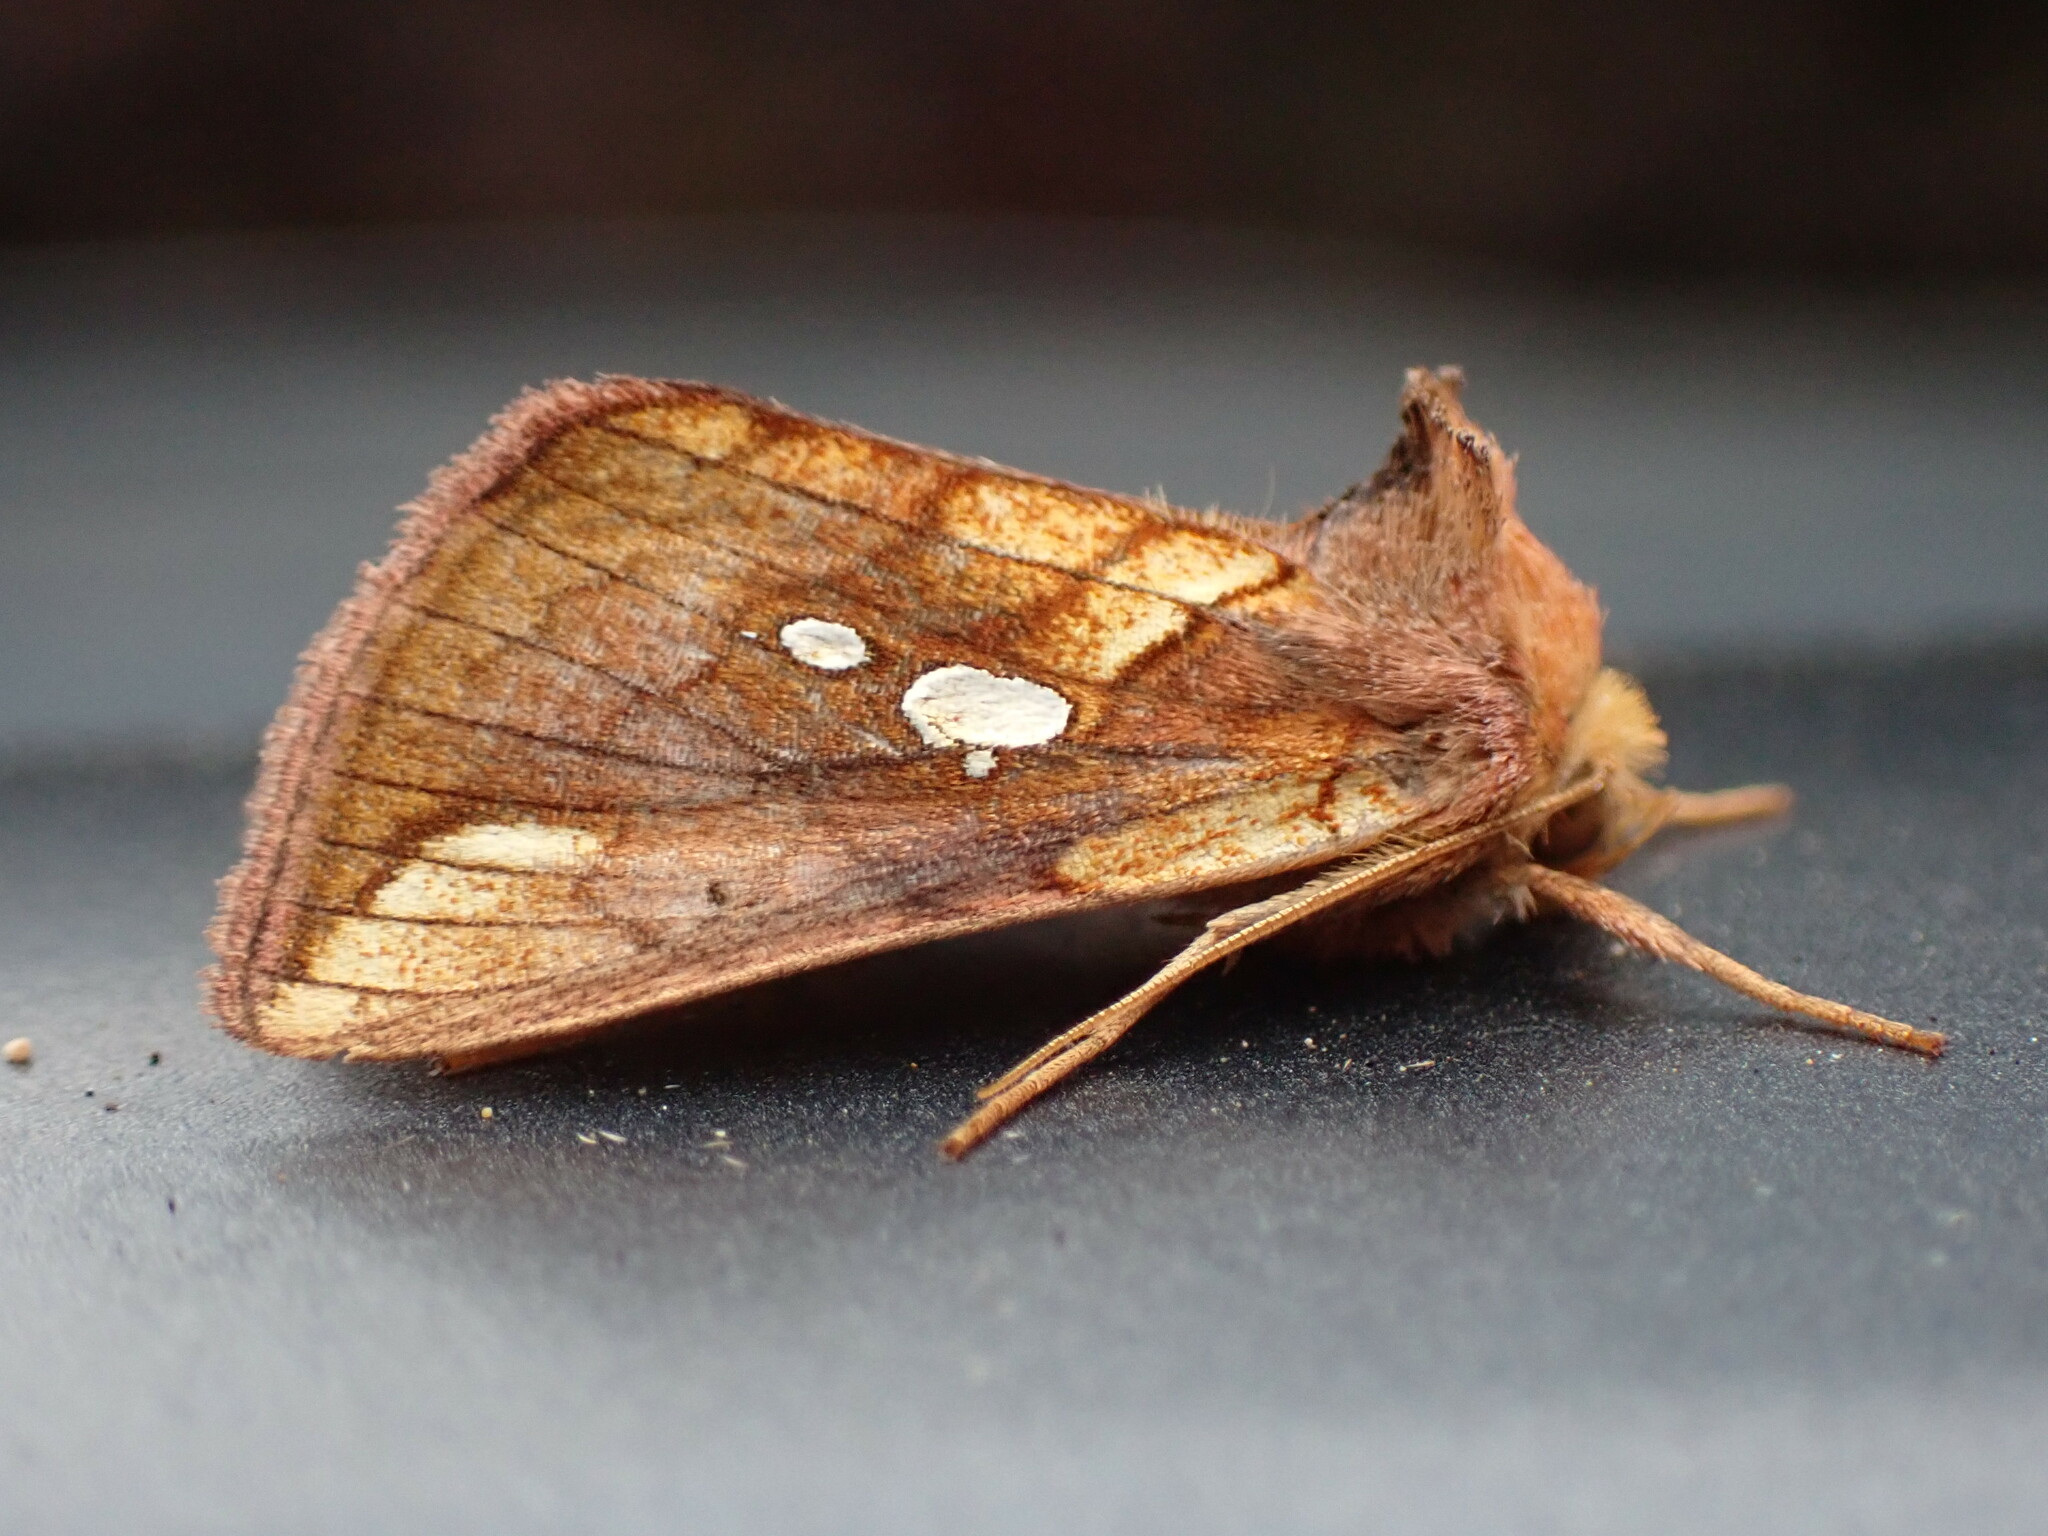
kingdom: Animalia
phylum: Arthropoda
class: Insecta
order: Lepidoptera
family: Noctuidae
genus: Plusia
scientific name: Plusia nichollae
